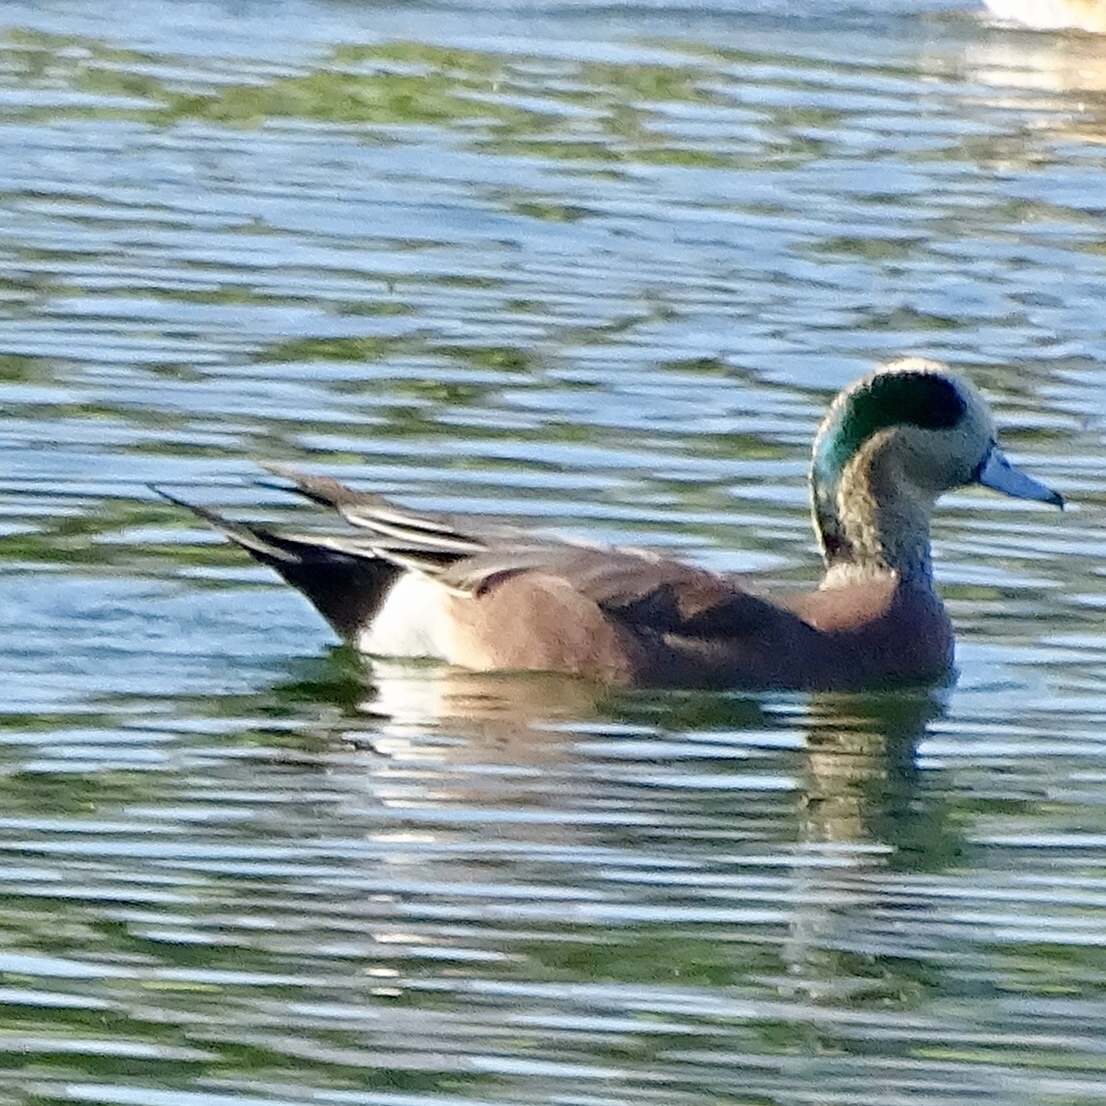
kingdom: Animalia
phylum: Chordata
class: Aves
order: Anseriformes
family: Anatidae
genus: Mareca
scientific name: Mareca americana
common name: American wigeon
